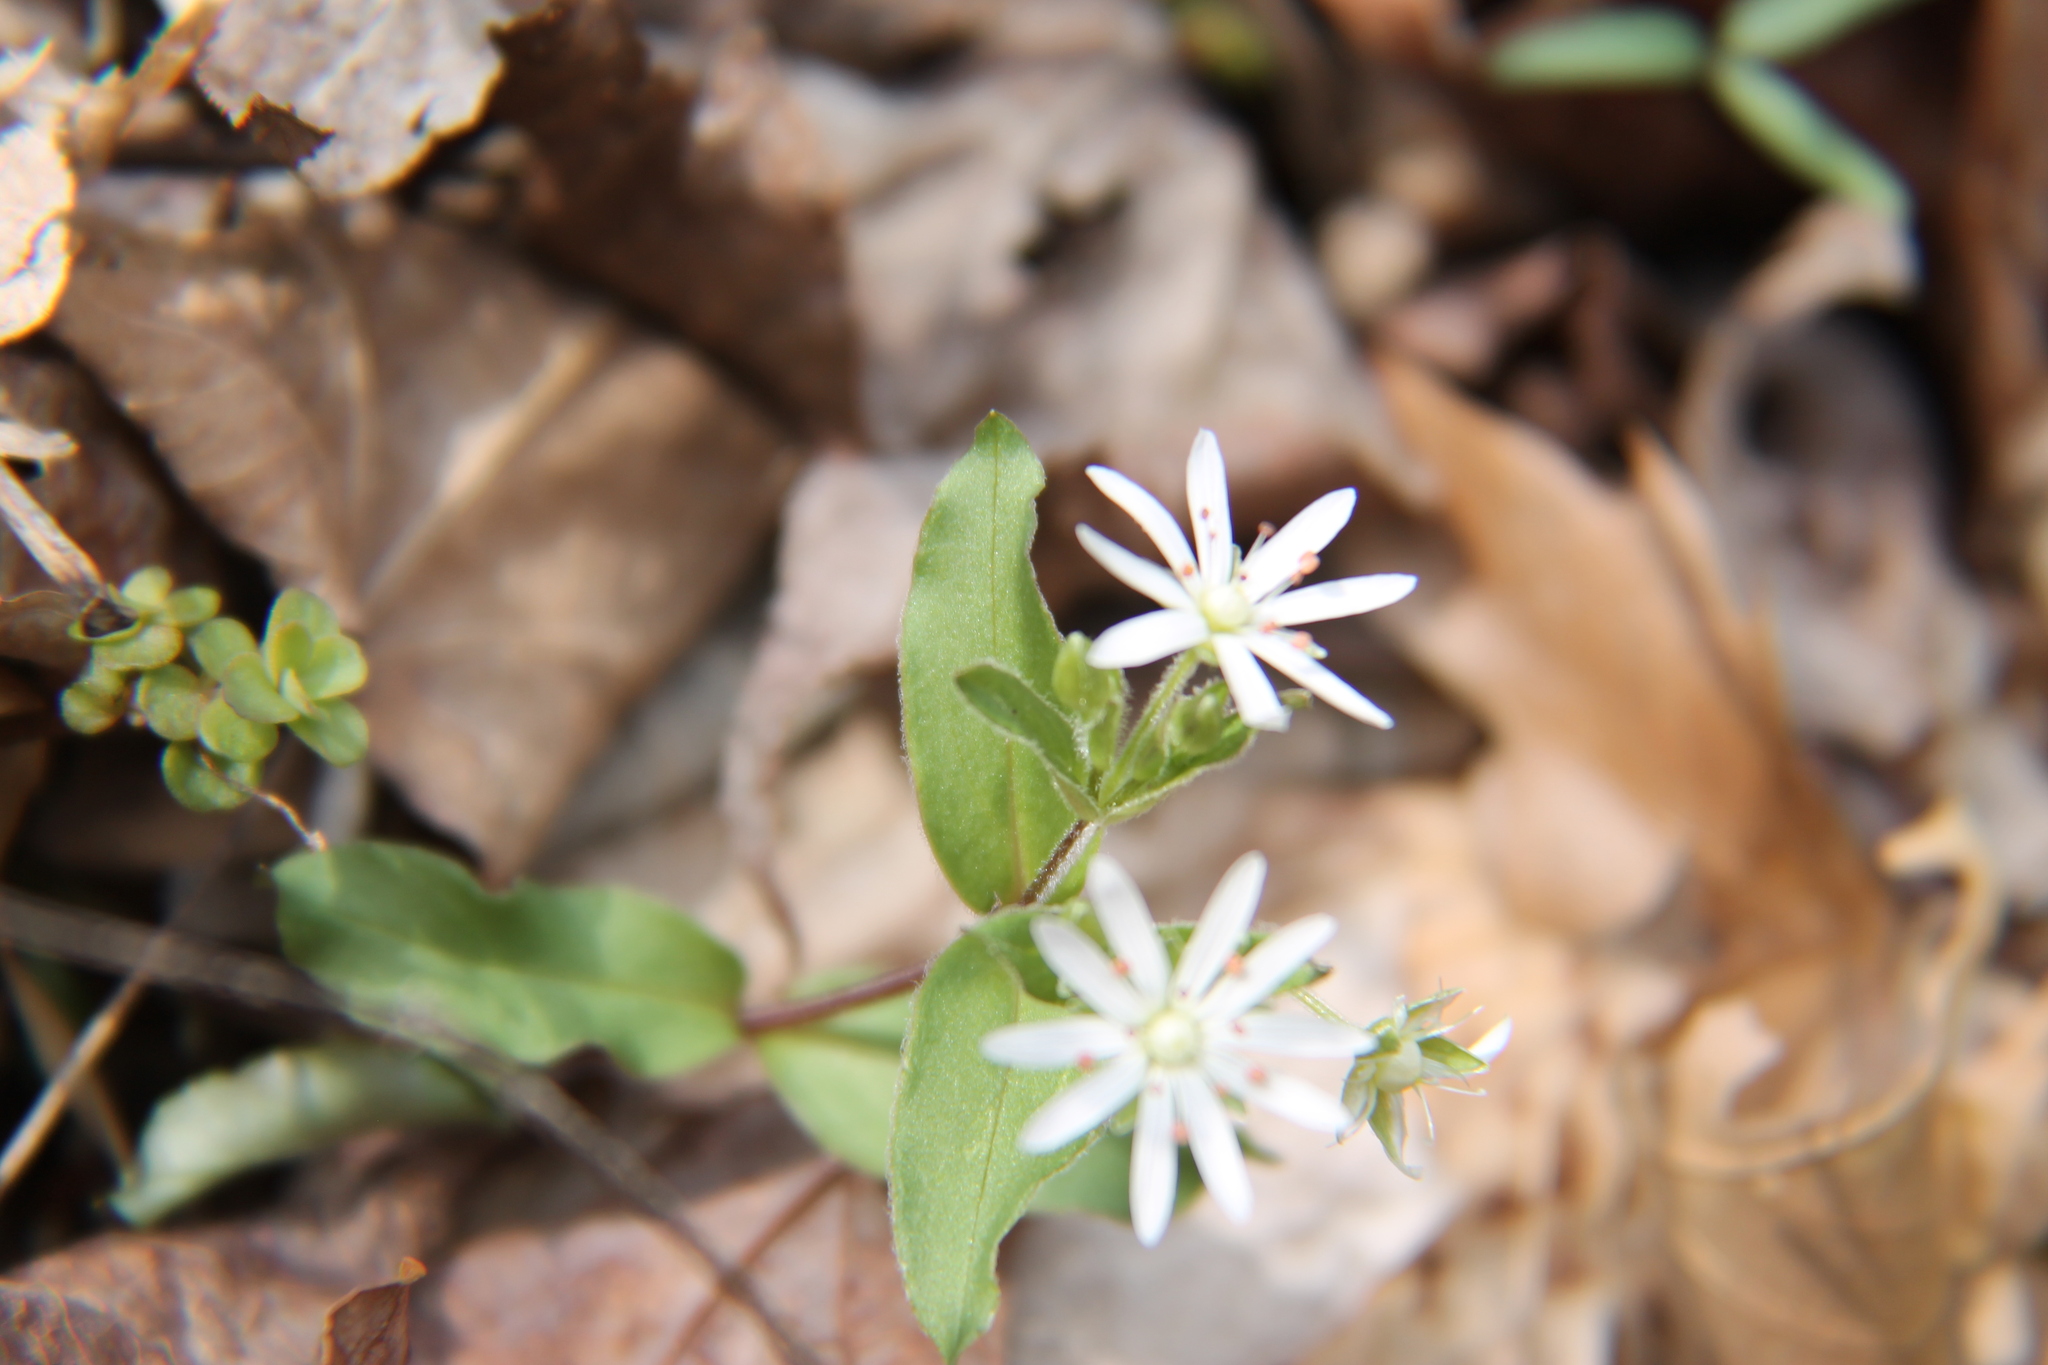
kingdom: Plantae
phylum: Tracheophyta
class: Magnoliopsida
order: Caryophyllales
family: Caryophyllaceae
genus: Stellaria
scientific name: Stellaria pubera
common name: Star chickweed
